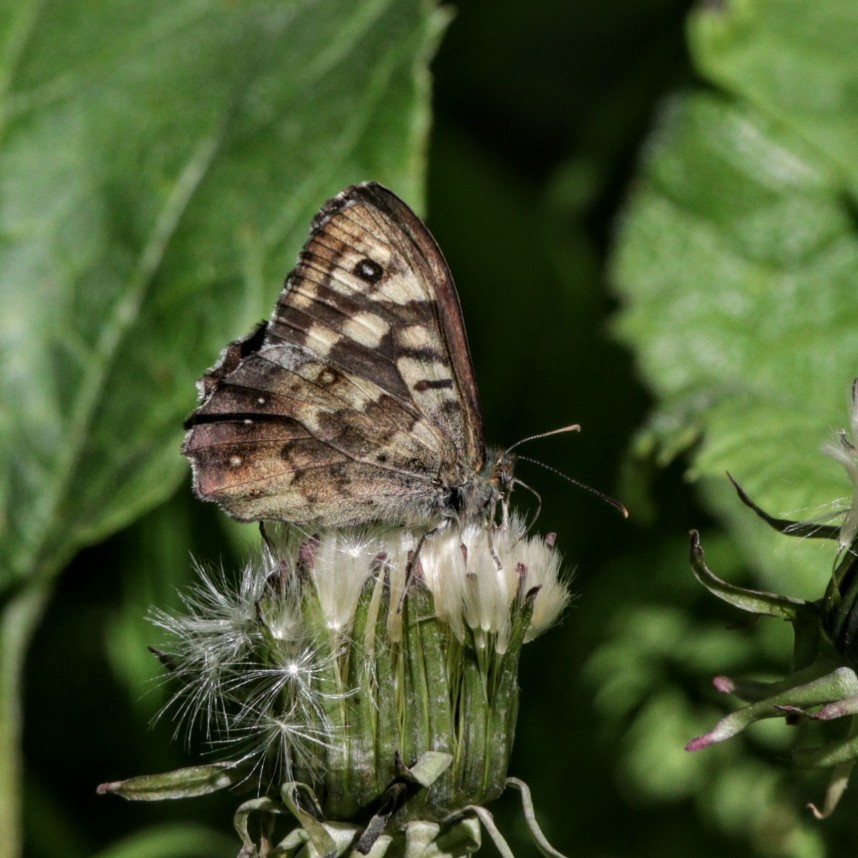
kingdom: Animalia
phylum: Arthropoda
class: Insecta
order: Lepidoptera
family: Nymphalidae
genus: Pararge
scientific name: Pararge aegeria
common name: Speckled wood
